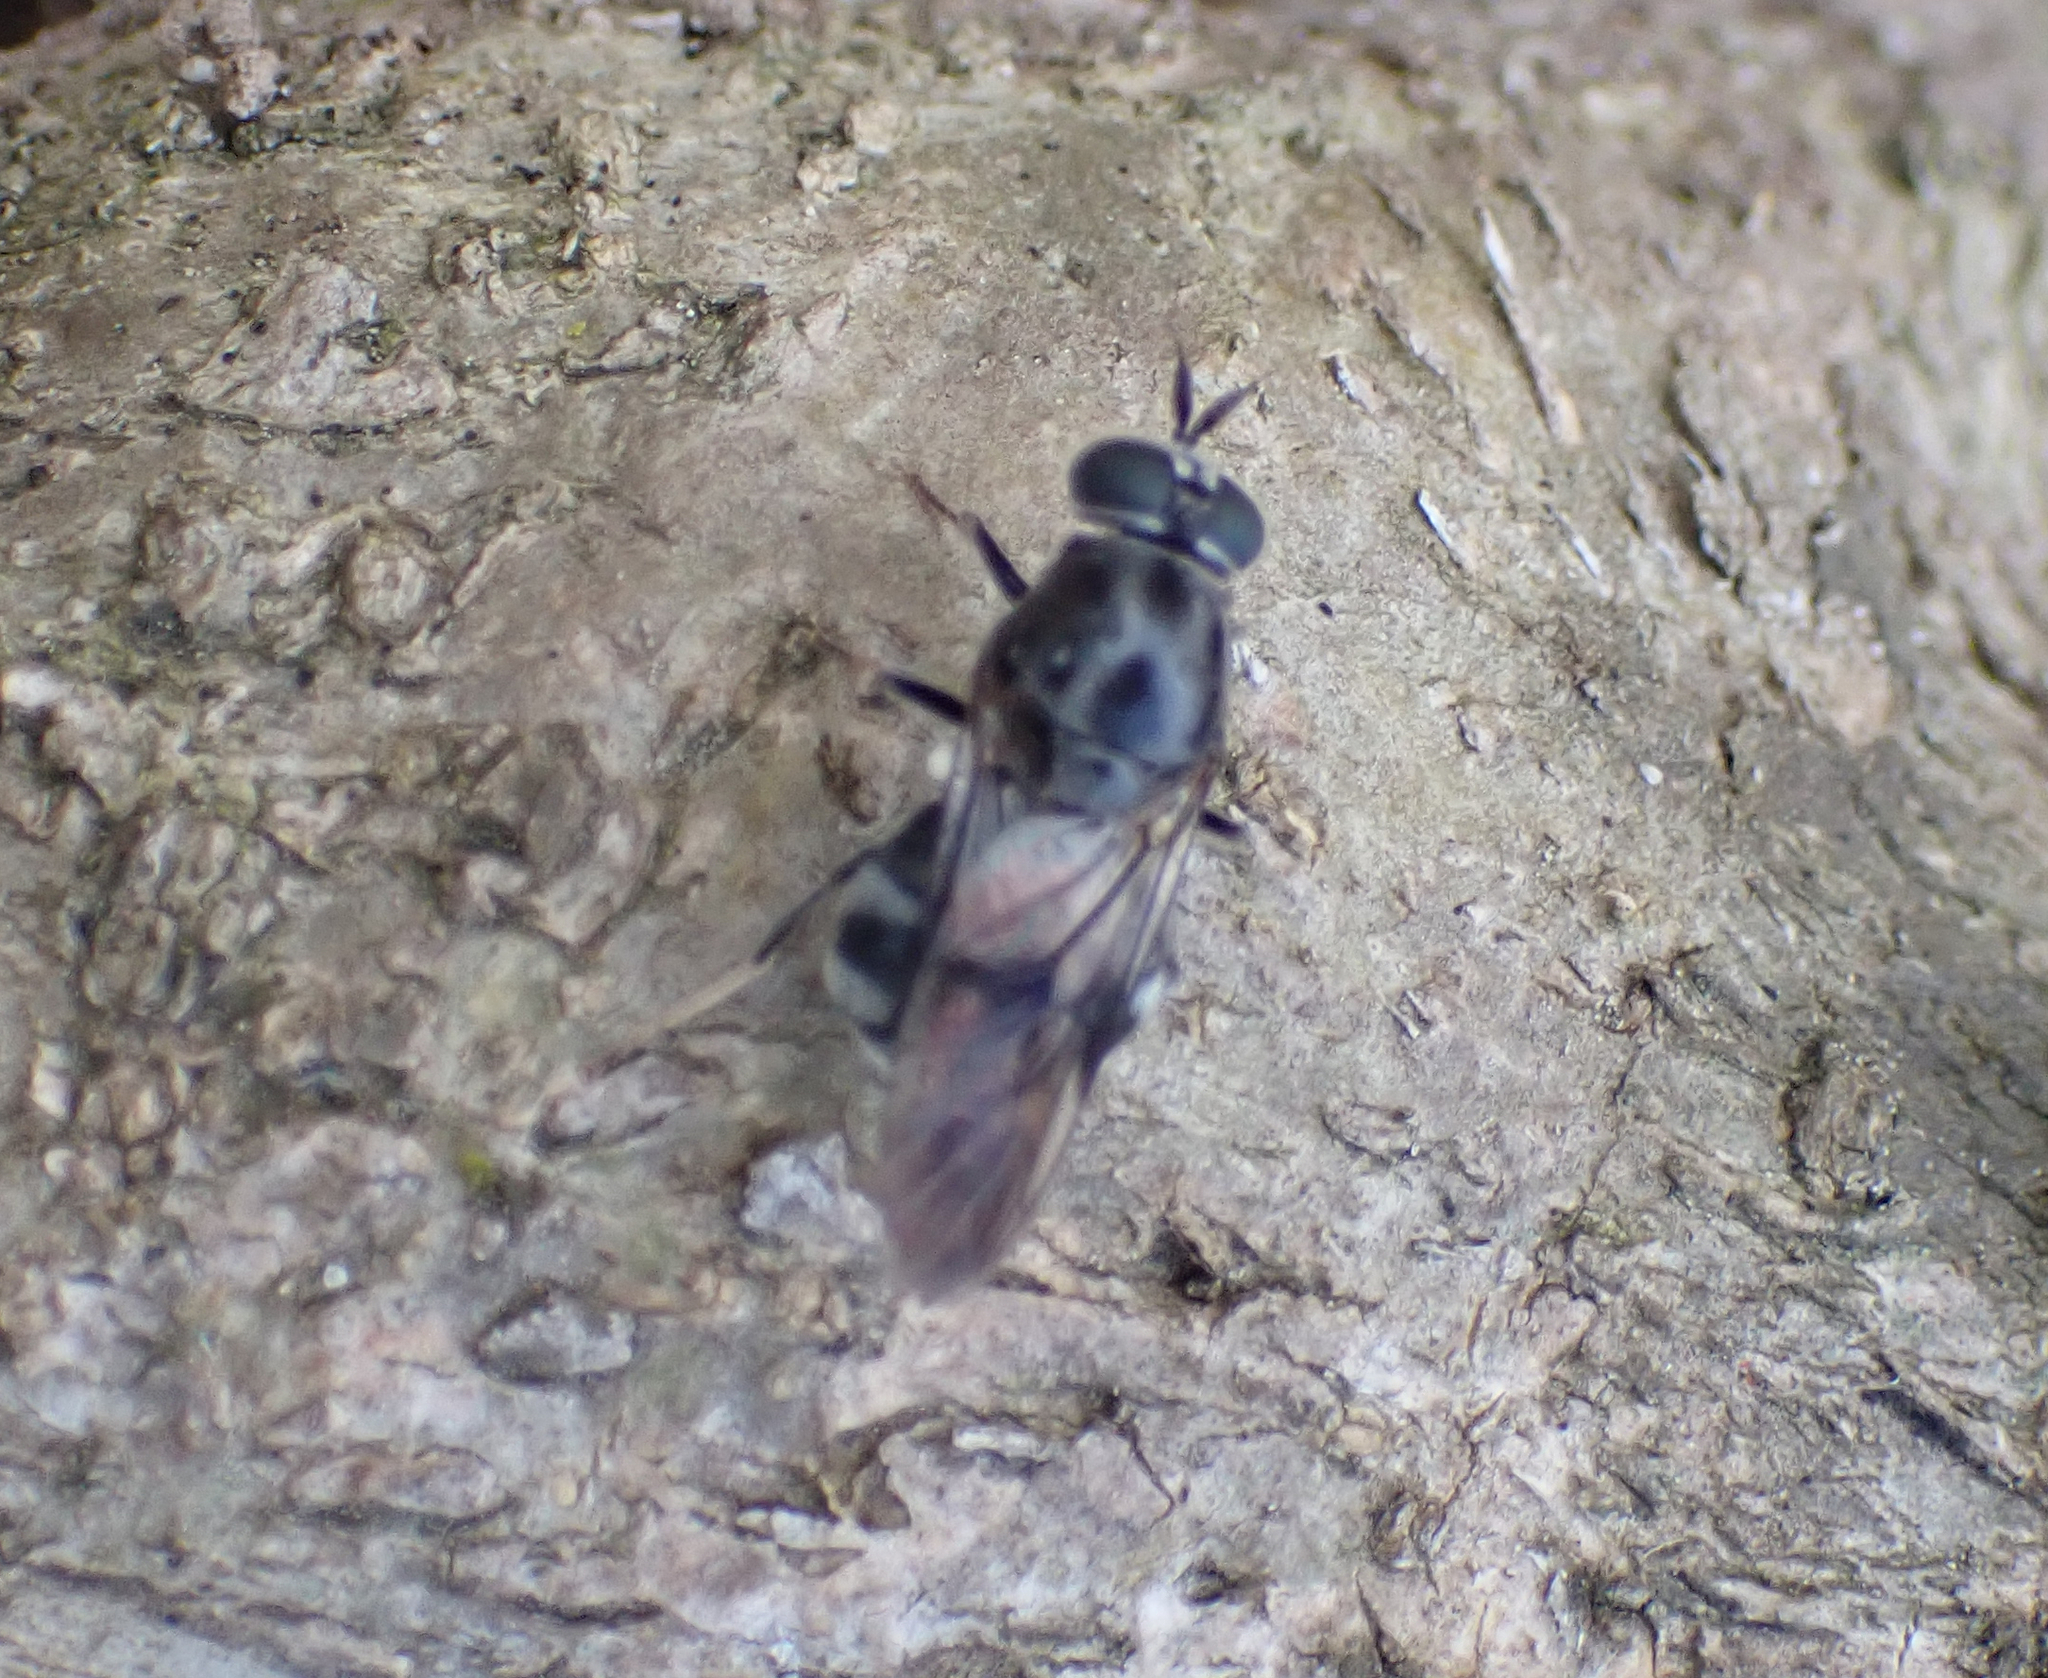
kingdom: Animalia
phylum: Arthropoda
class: Insecta
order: Diptera
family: Stratiomyidae
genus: Adoxomyia
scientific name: Adoxomyia subulata
